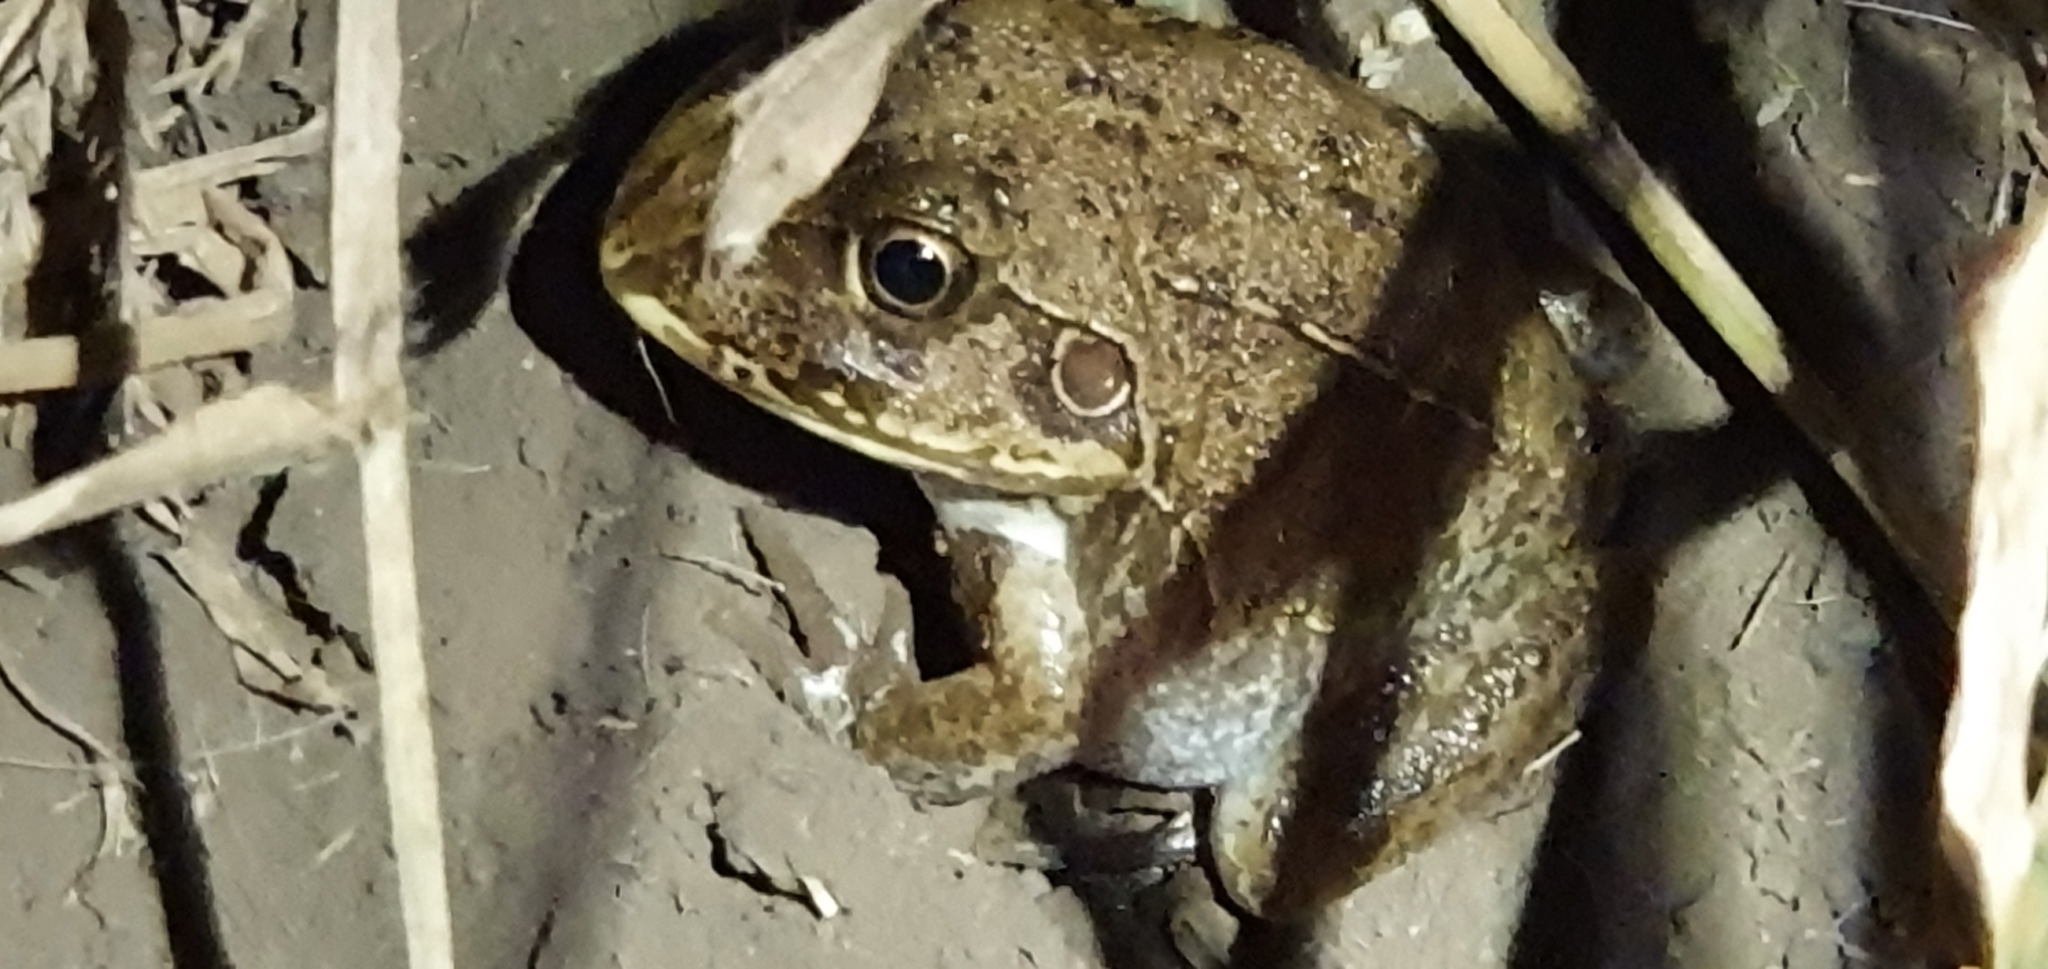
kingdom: Animalia
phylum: Chordata
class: Amphibia
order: Anura
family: Pelodryadidae
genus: Ranoidea
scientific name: Ranoidea novaehollandiae
